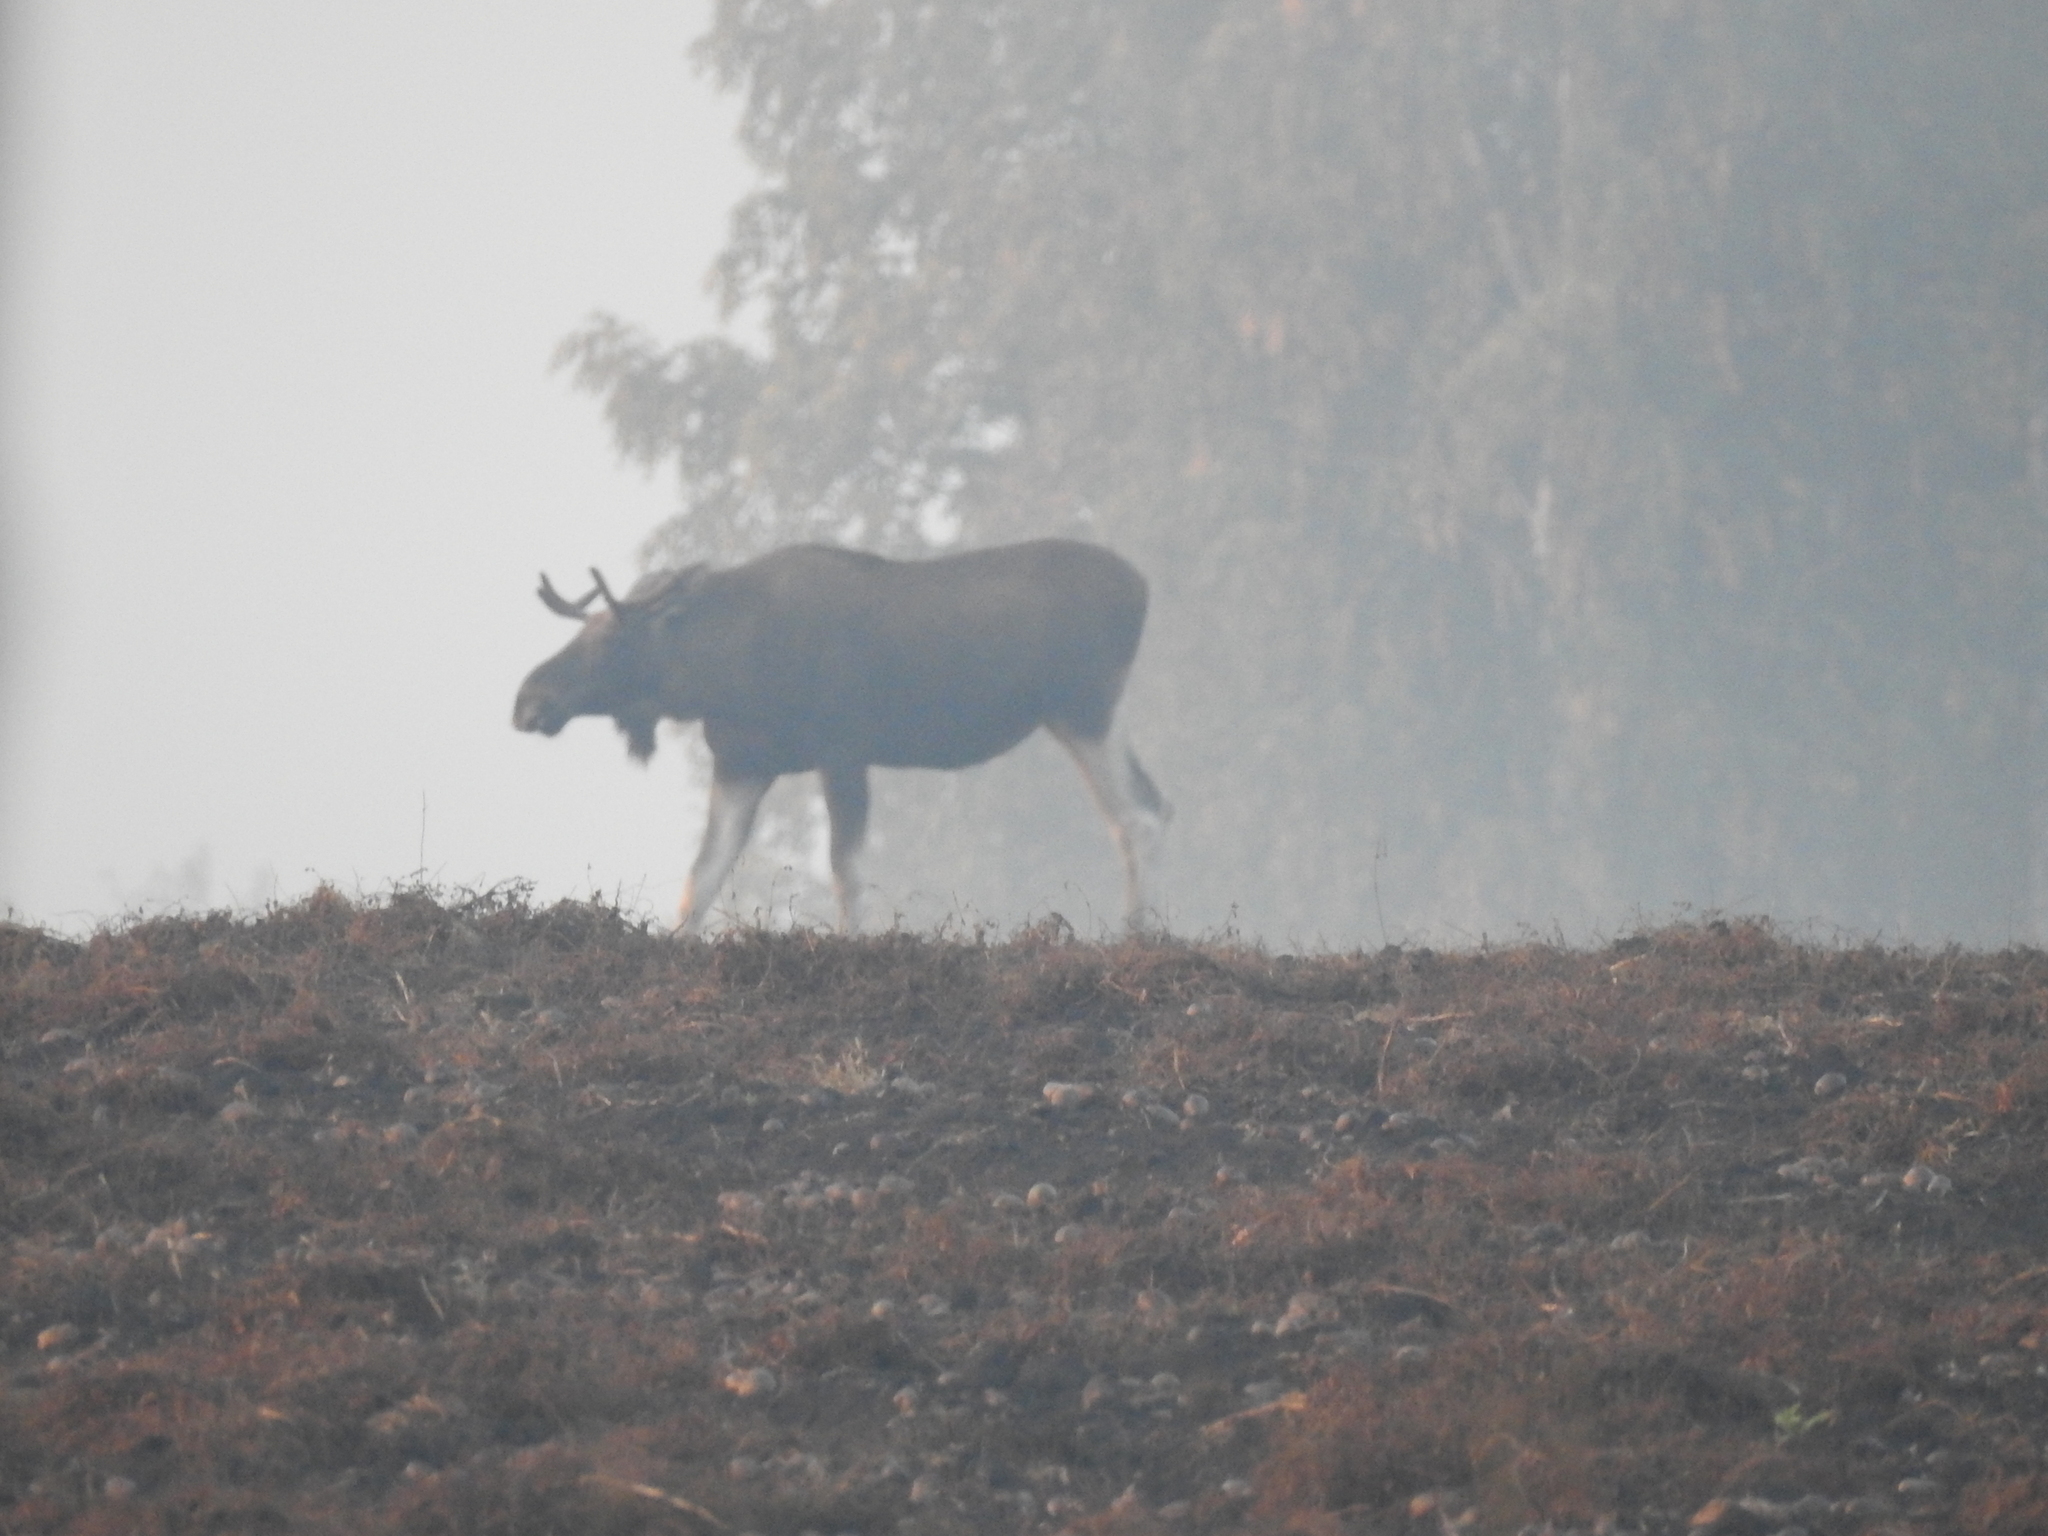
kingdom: Animalia
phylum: Chordata
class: Mammalia
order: Artiodactyla
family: Cervidae
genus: Alces
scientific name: Alces alces
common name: Moose
